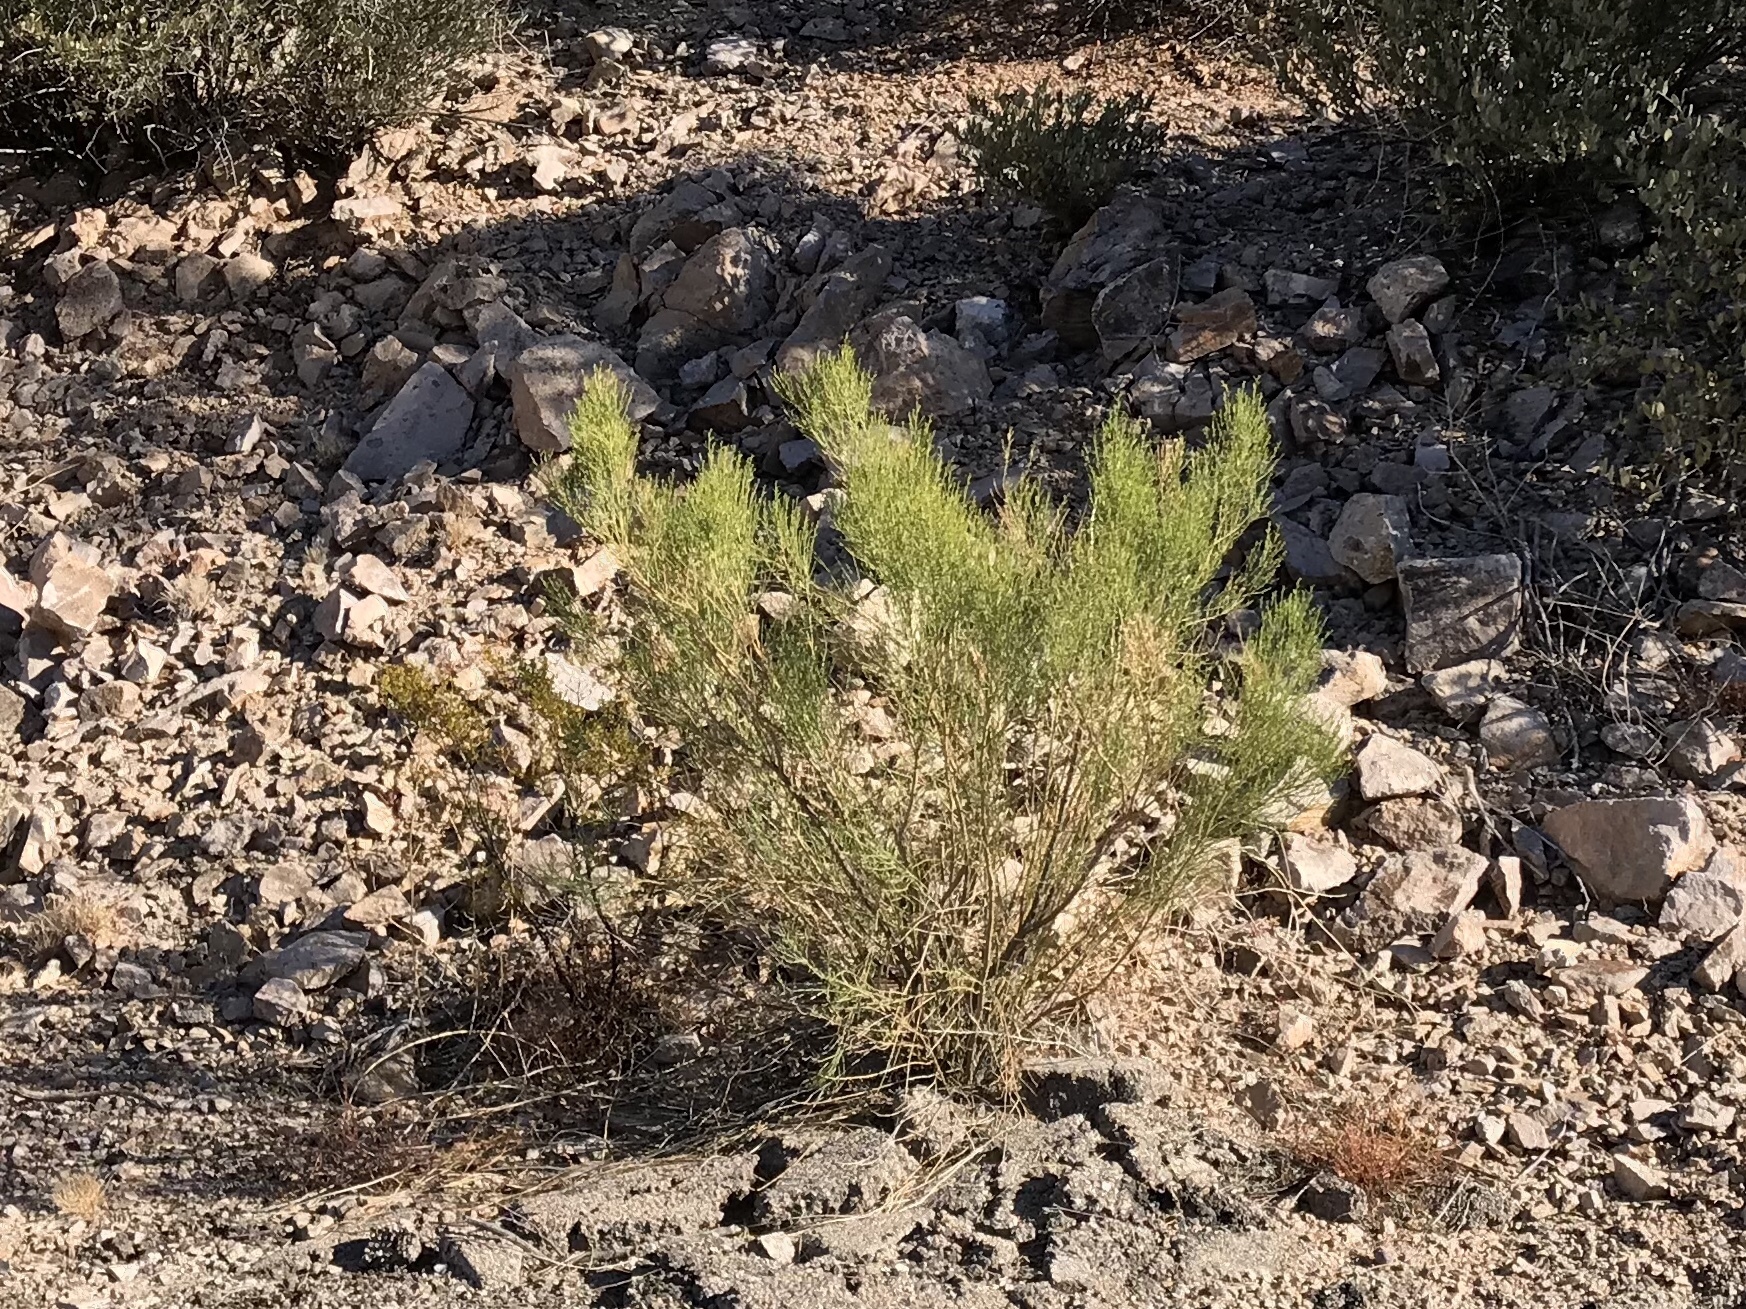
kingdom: Plantae
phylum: Tracheophyta
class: Magnoliopsida
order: Asterales
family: Asteraceae
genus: Baccharis
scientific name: Baccharis sarothroides
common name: Desert-broom
